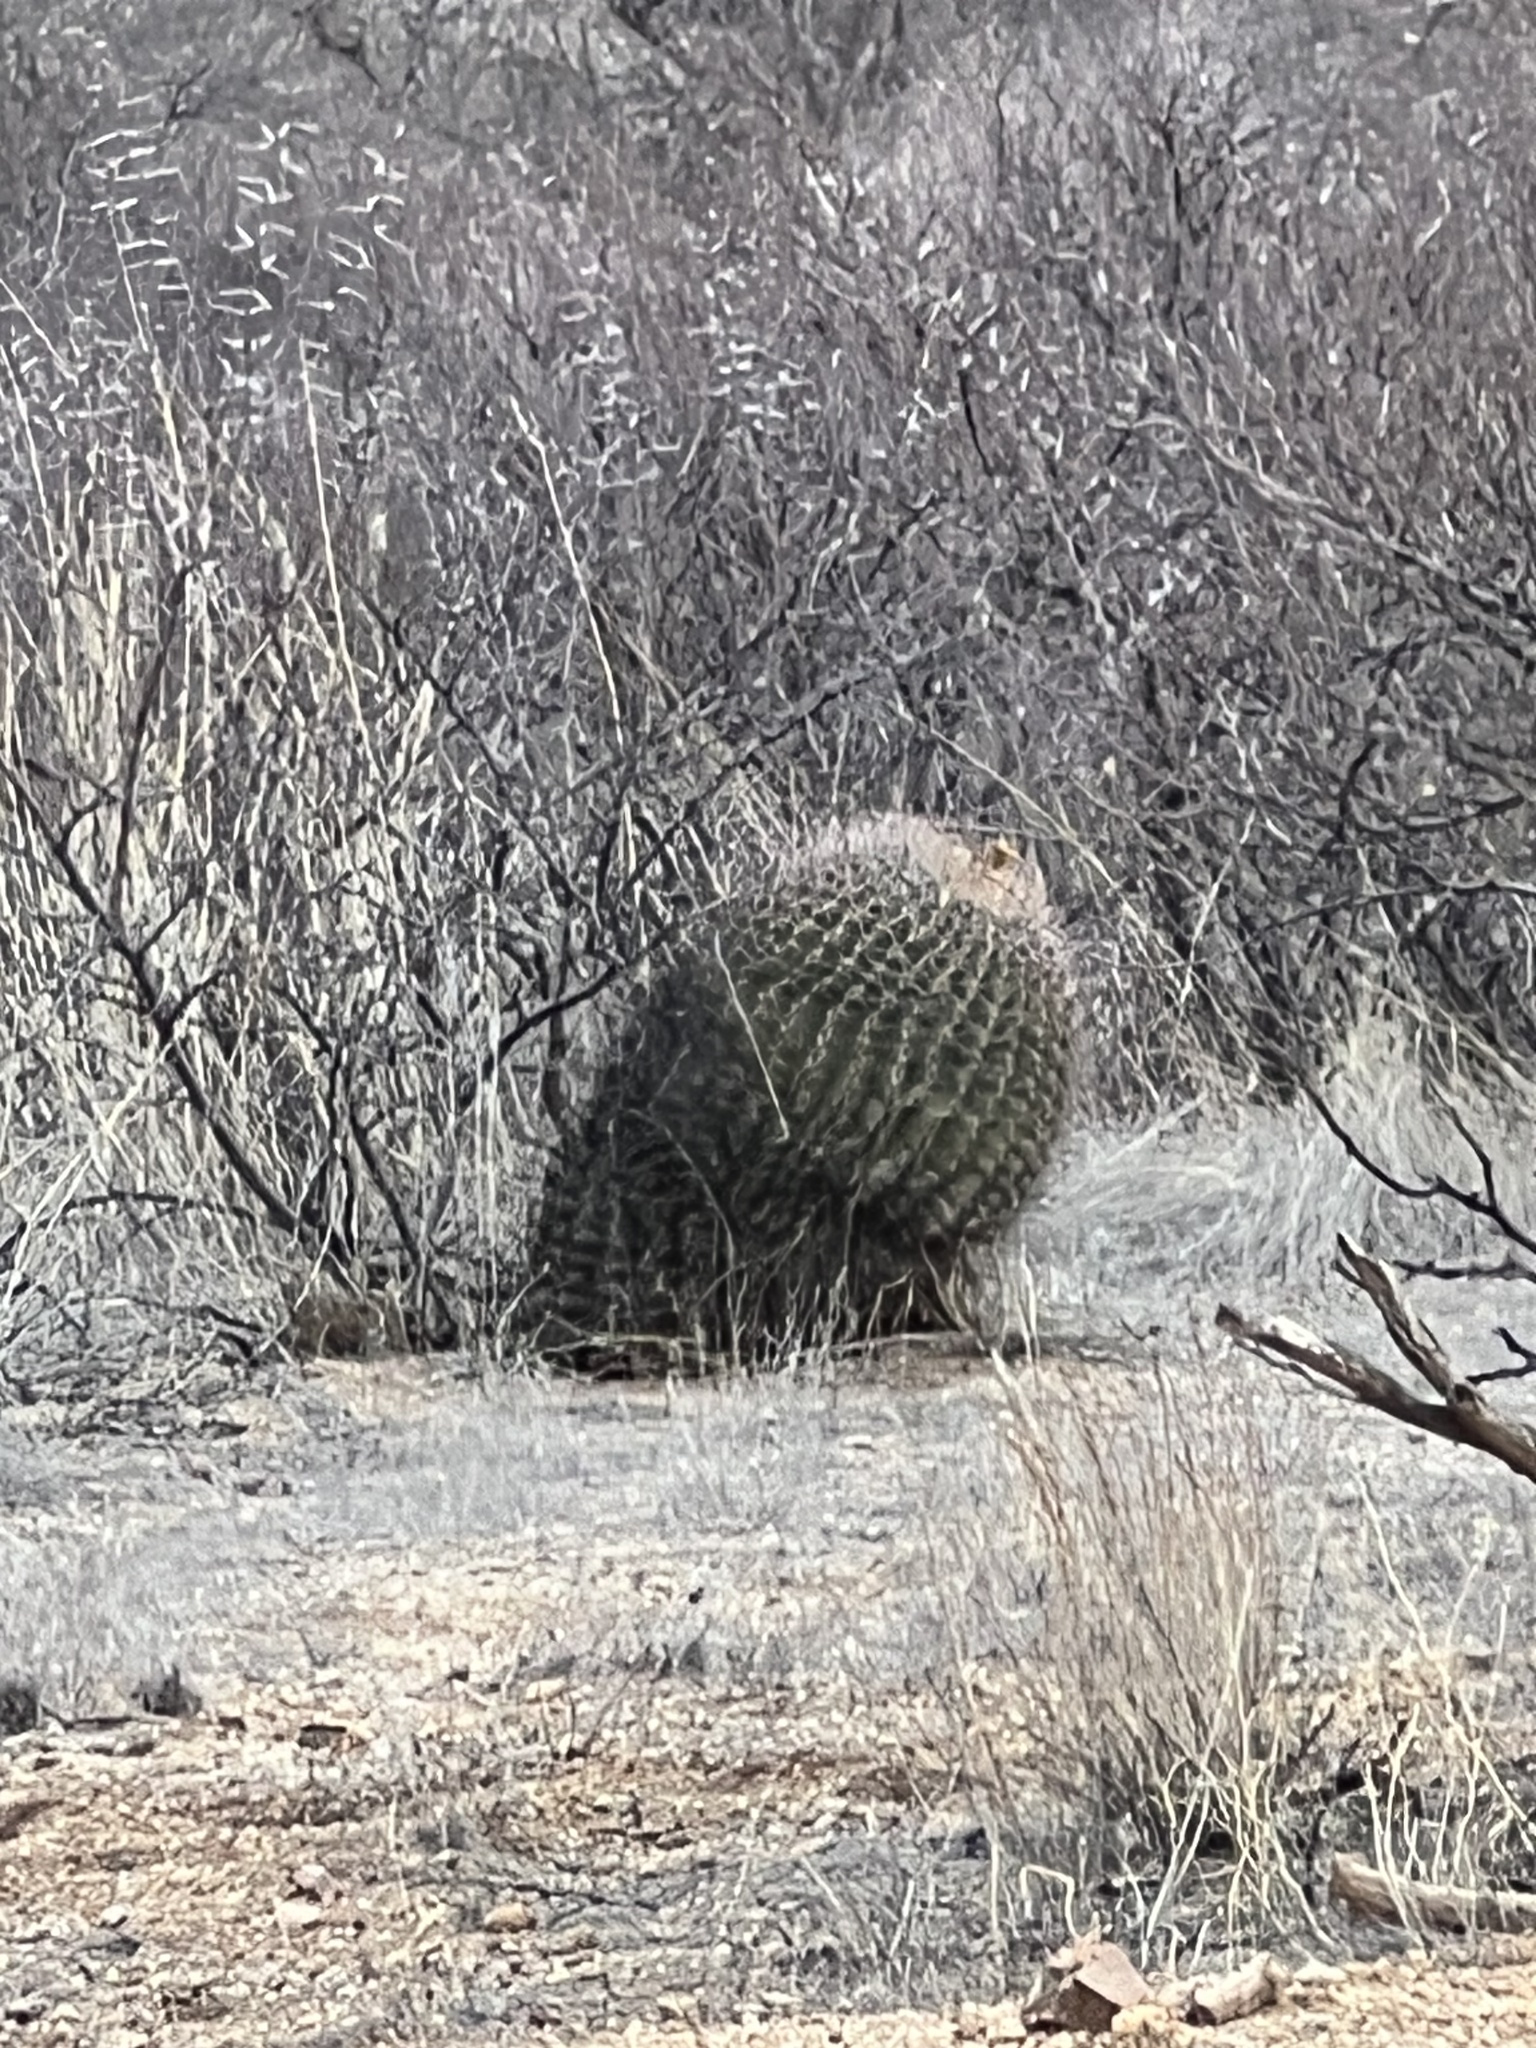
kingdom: Plantae
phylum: Tracheophyta
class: Magnoliopsida
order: Caryophyllales
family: Cactaceae
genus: Ferocactus
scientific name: Ferocactus wislizeni
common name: Candy barrel cactus
